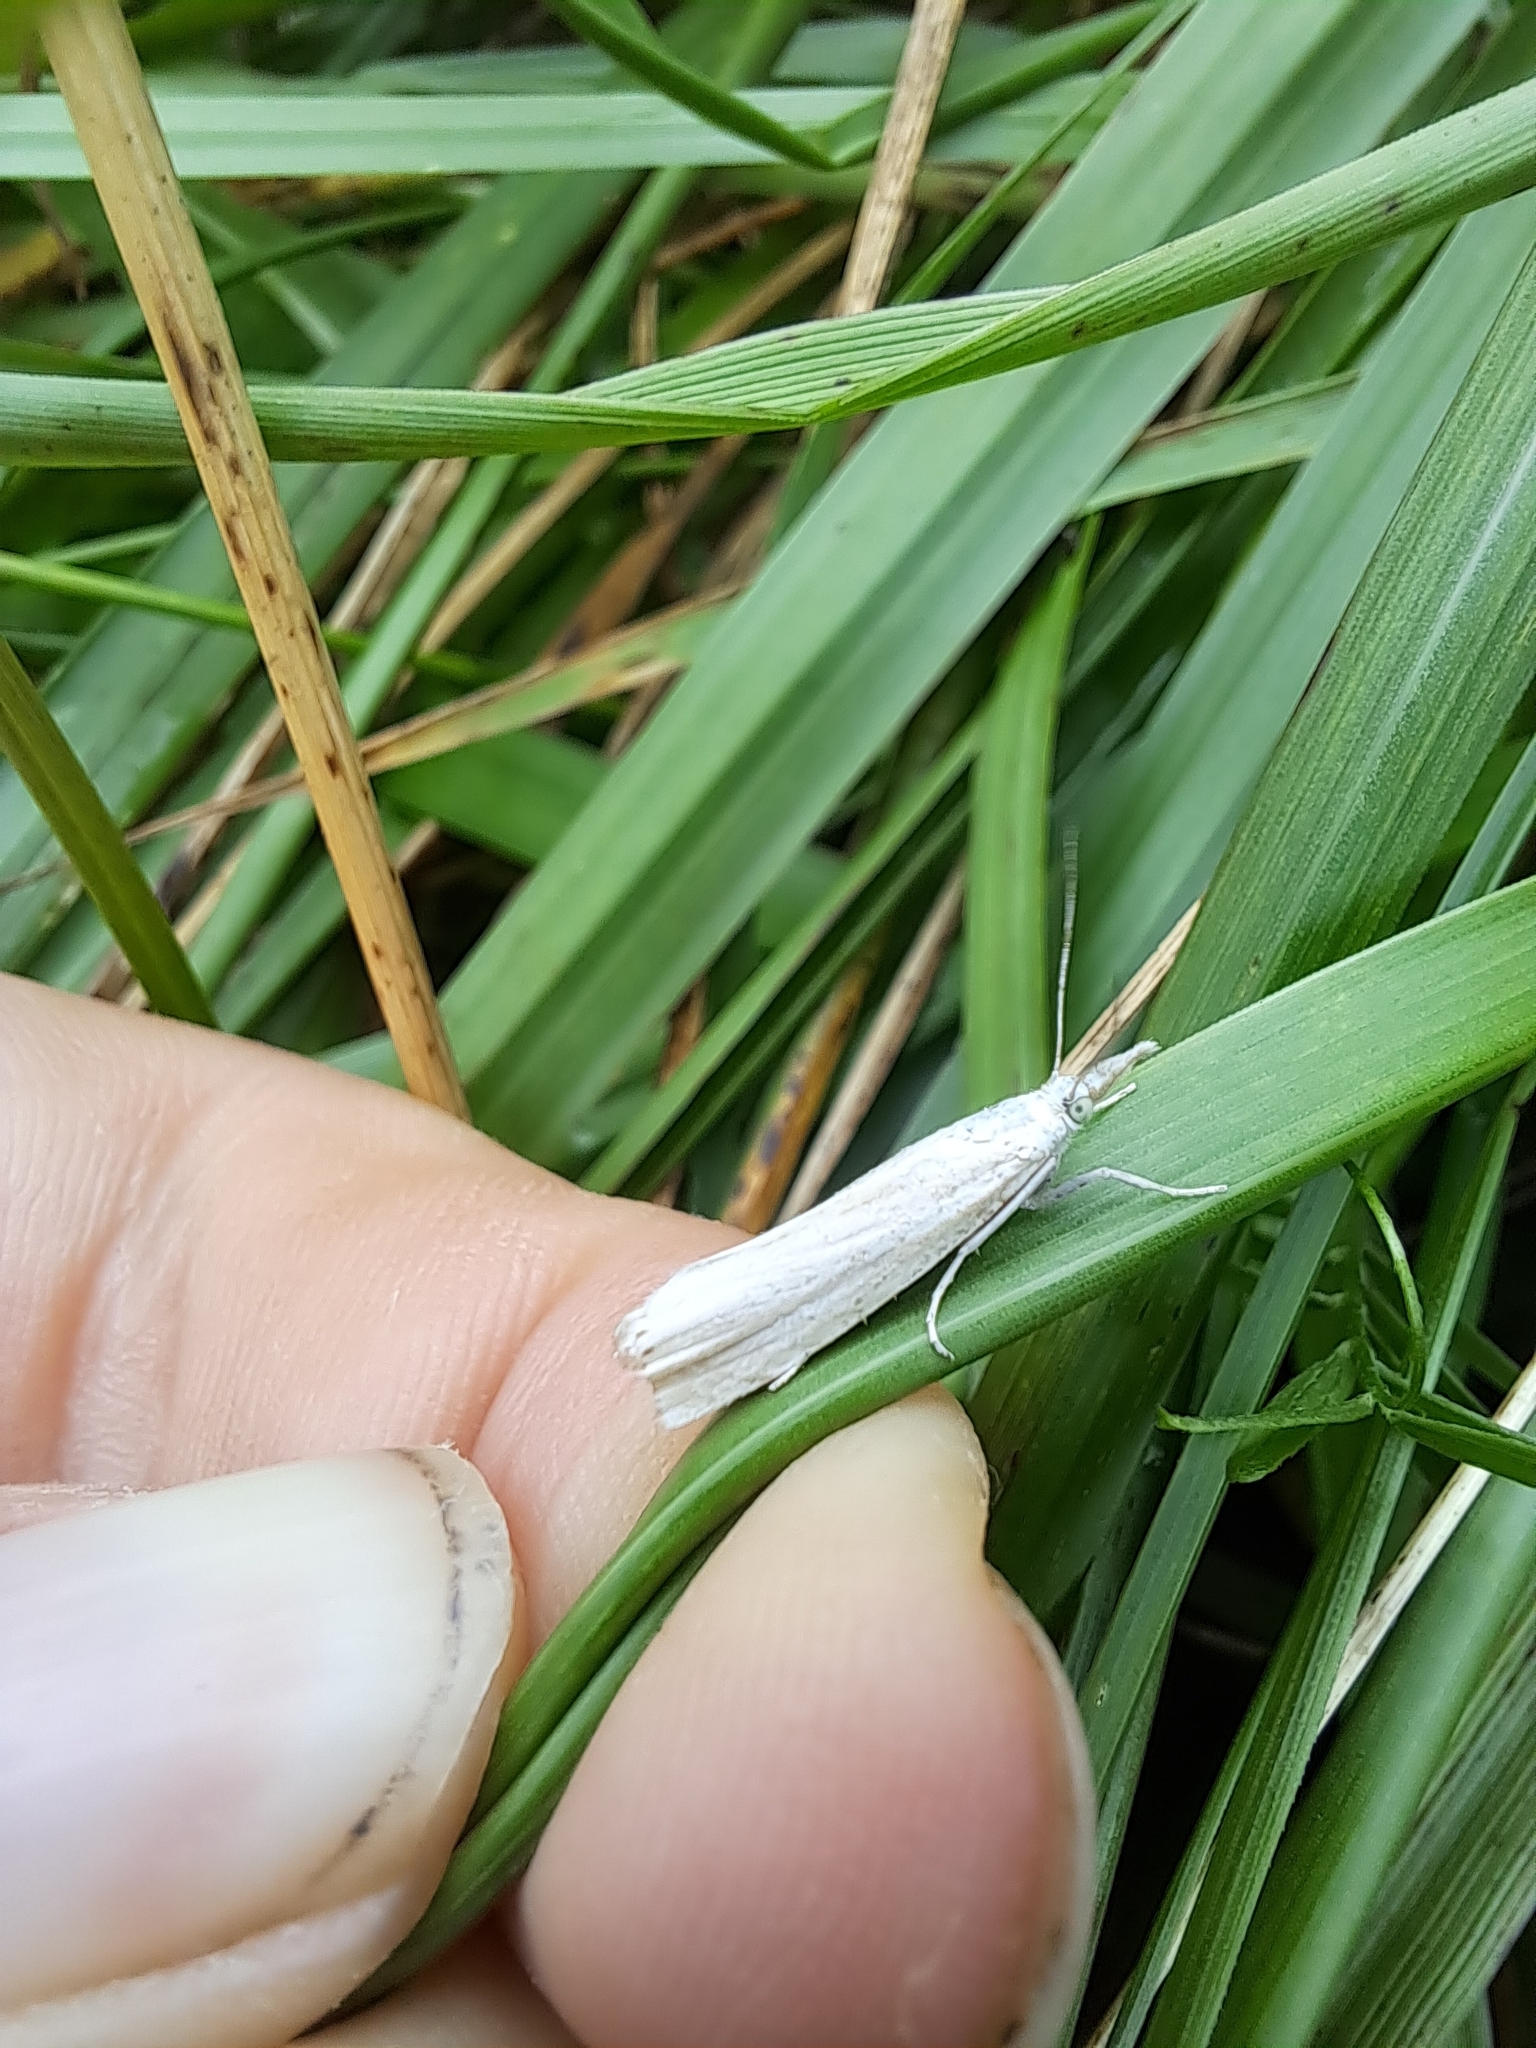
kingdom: Animalia
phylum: Arthropoda
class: Insecta
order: Lepidoptera
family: Crambidae
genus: Crambus
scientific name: Crambus
